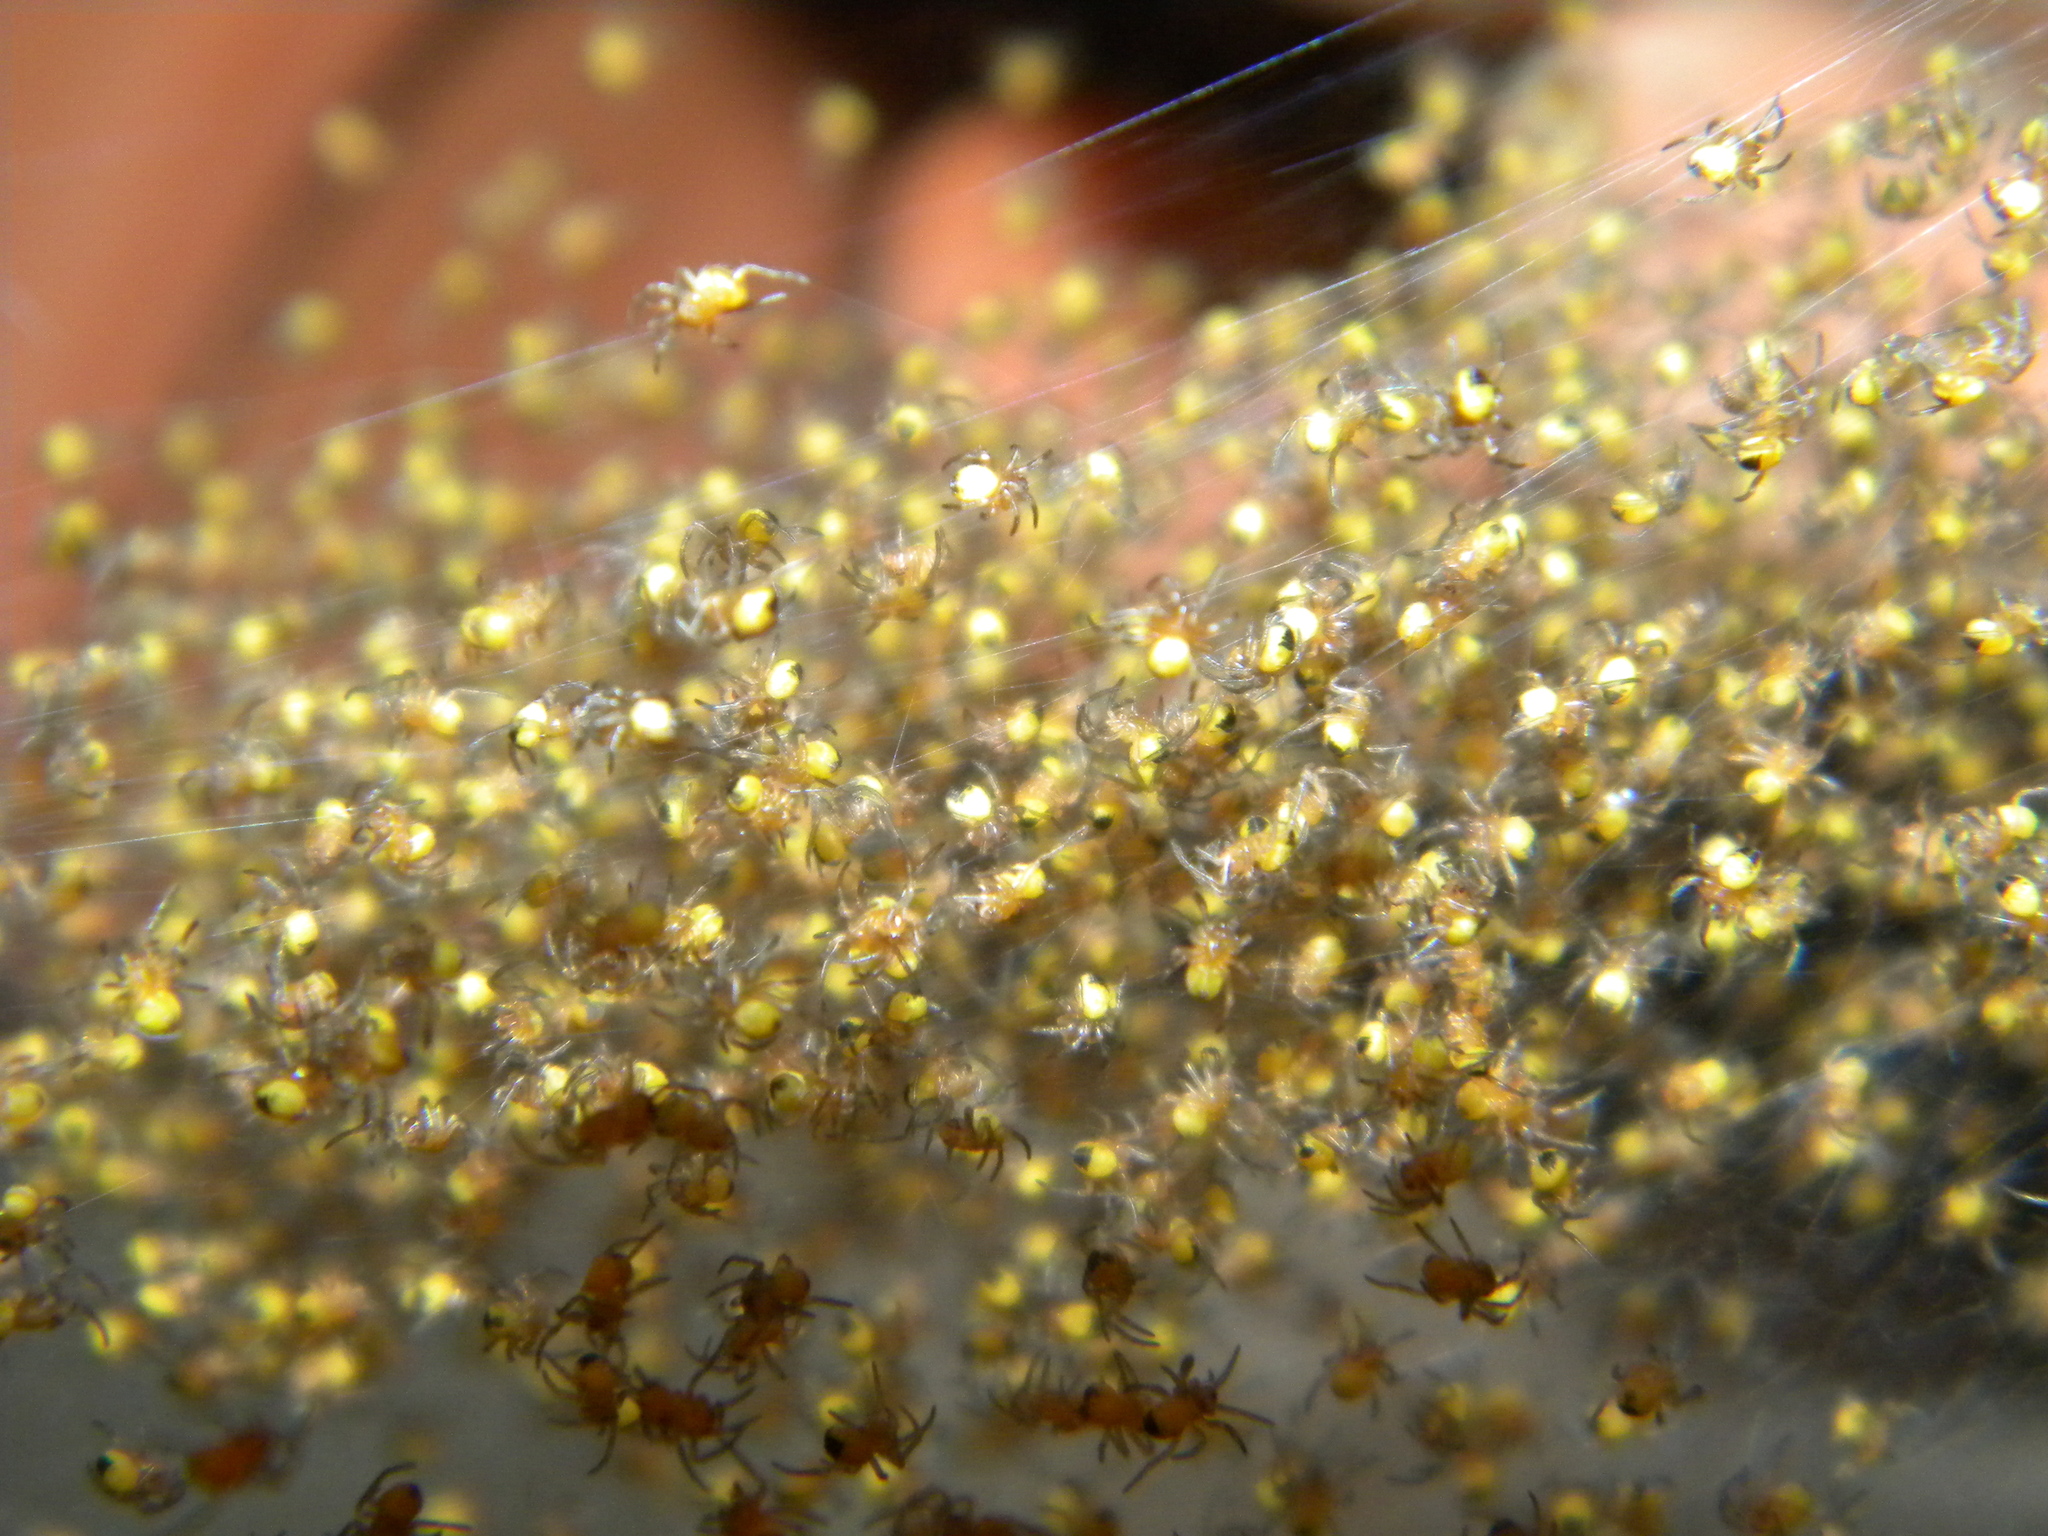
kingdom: Animalia
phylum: Arthropoda
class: Arachnida
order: Araneae
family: Araneidae
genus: Araneus
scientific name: Araneus
